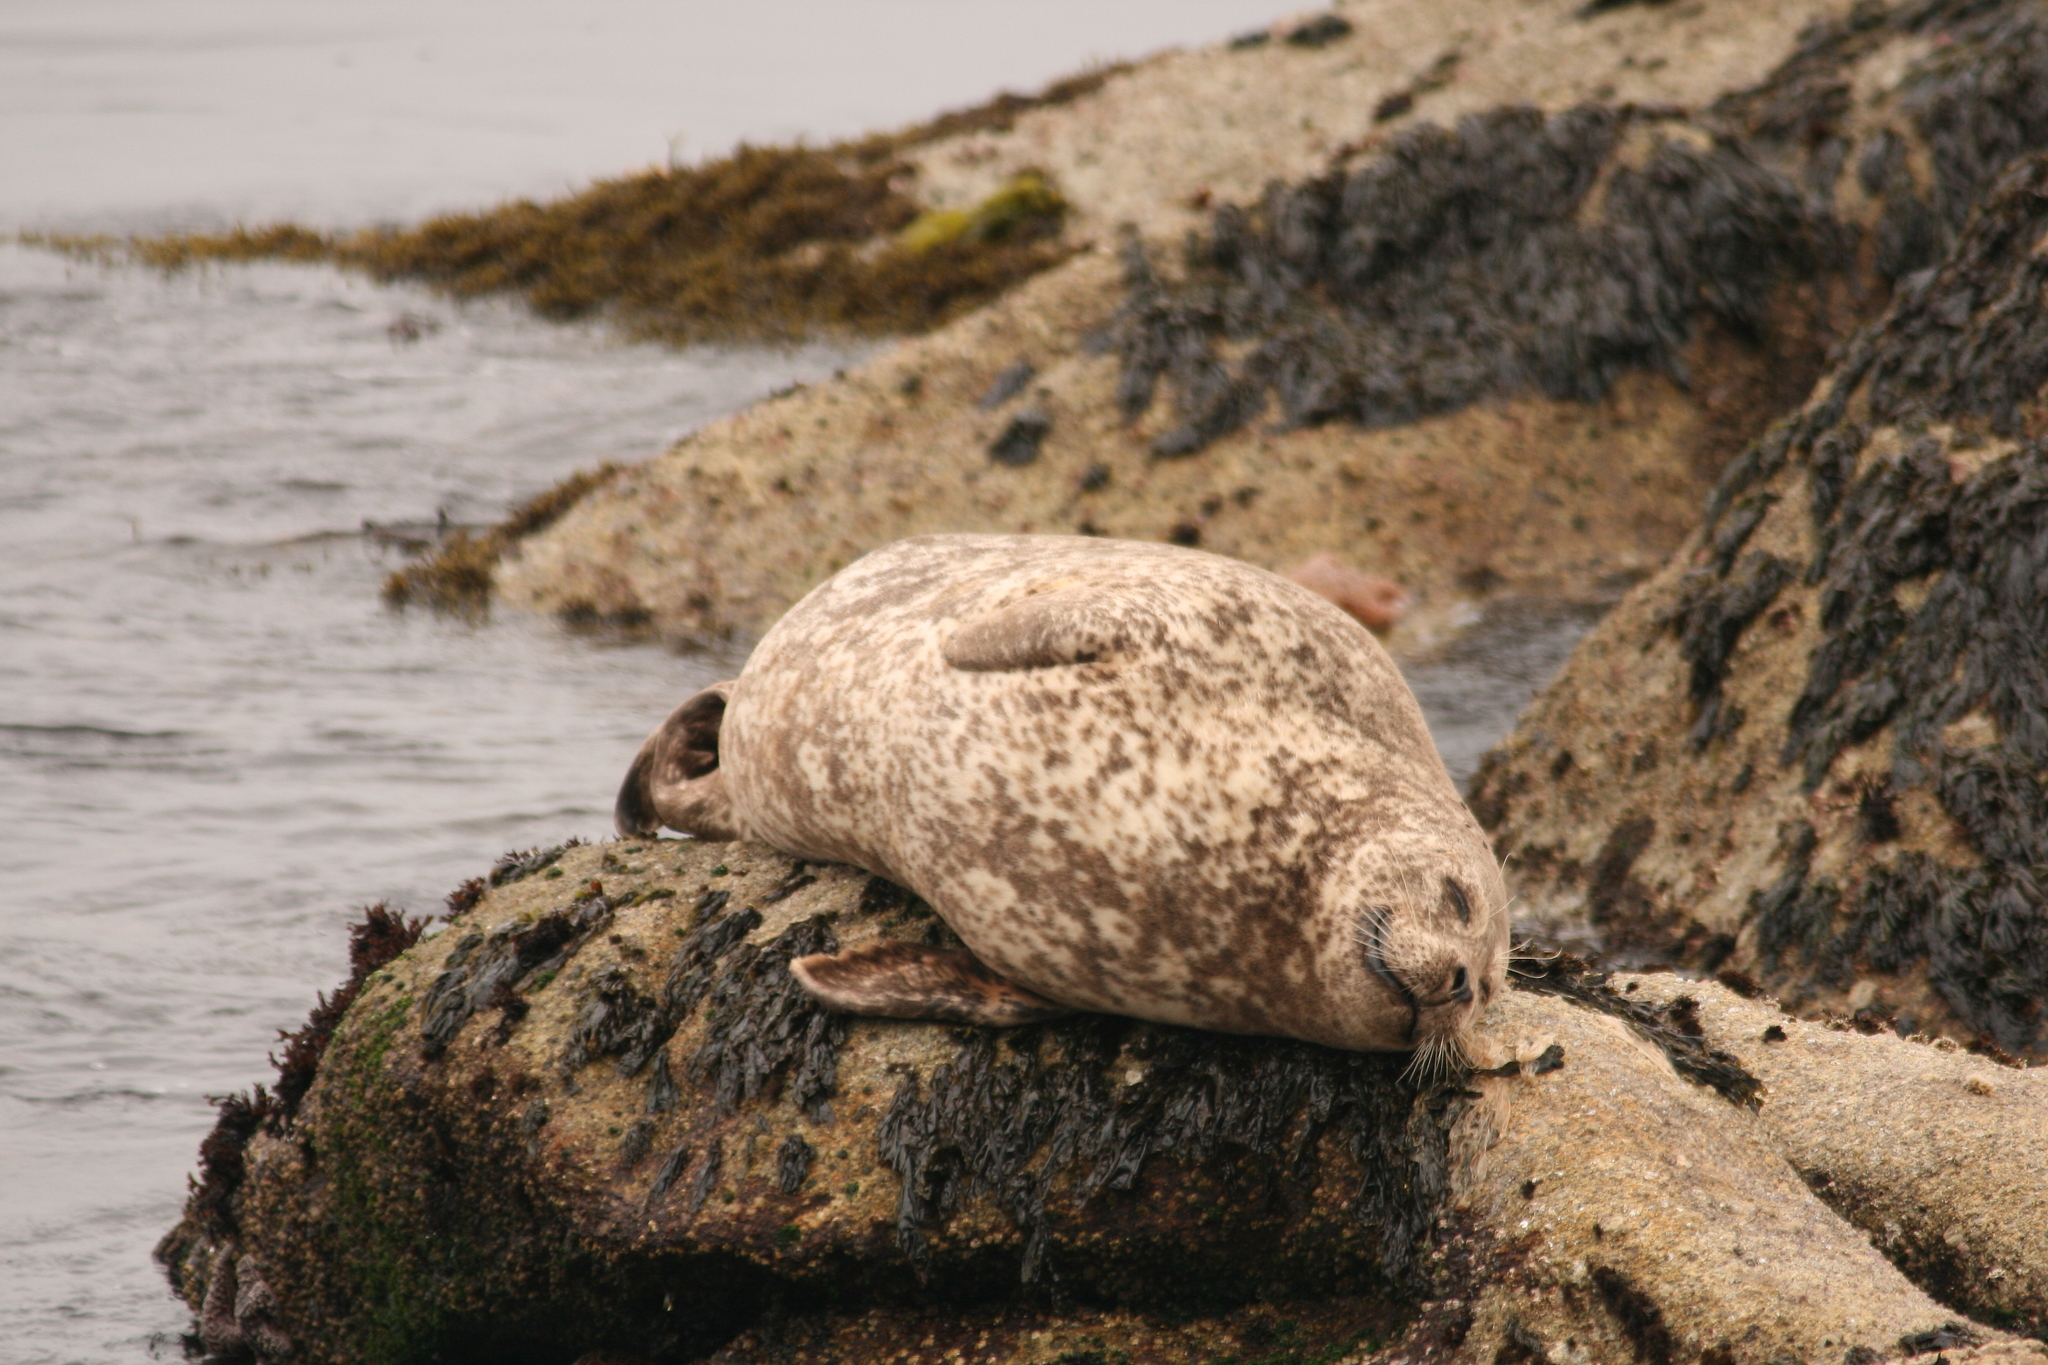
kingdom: Animalia
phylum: Chordata
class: Mammalia
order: Carnivora
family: Phocidae
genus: Phoca
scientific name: Phoca vitulina
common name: Harbor seal
